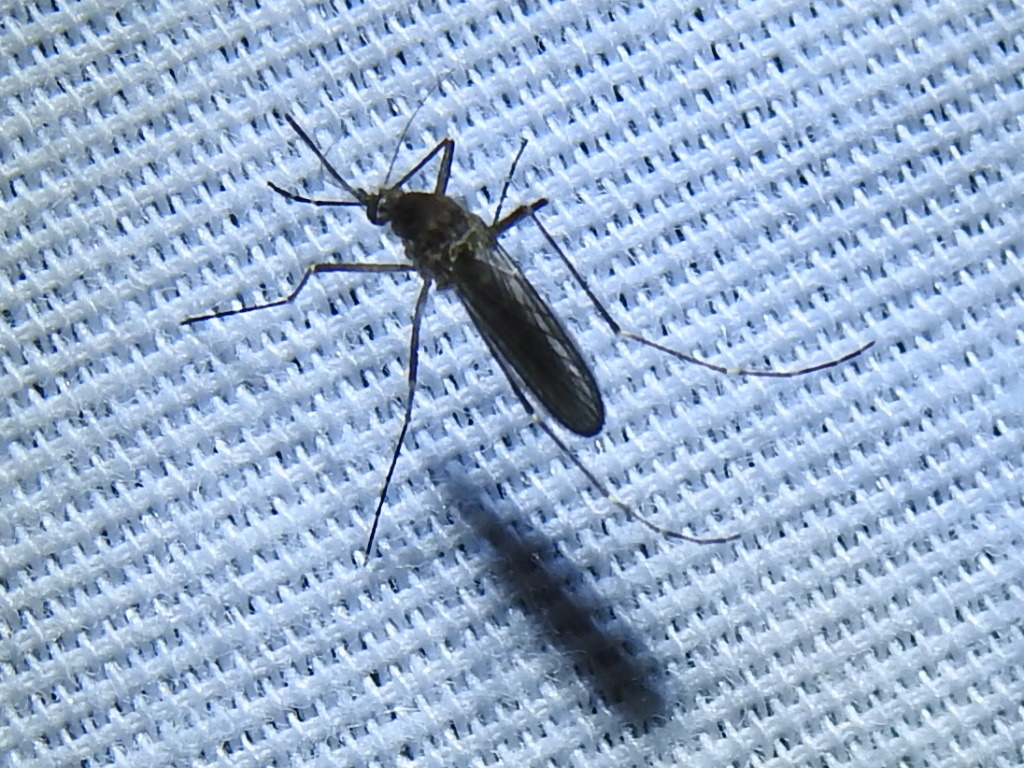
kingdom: Animalia
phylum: Arthropoda
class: Insecta
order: Diptera
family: Culicidae
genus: Aedes
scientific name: Aedes vexans
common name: Inland floodwater mosquito
